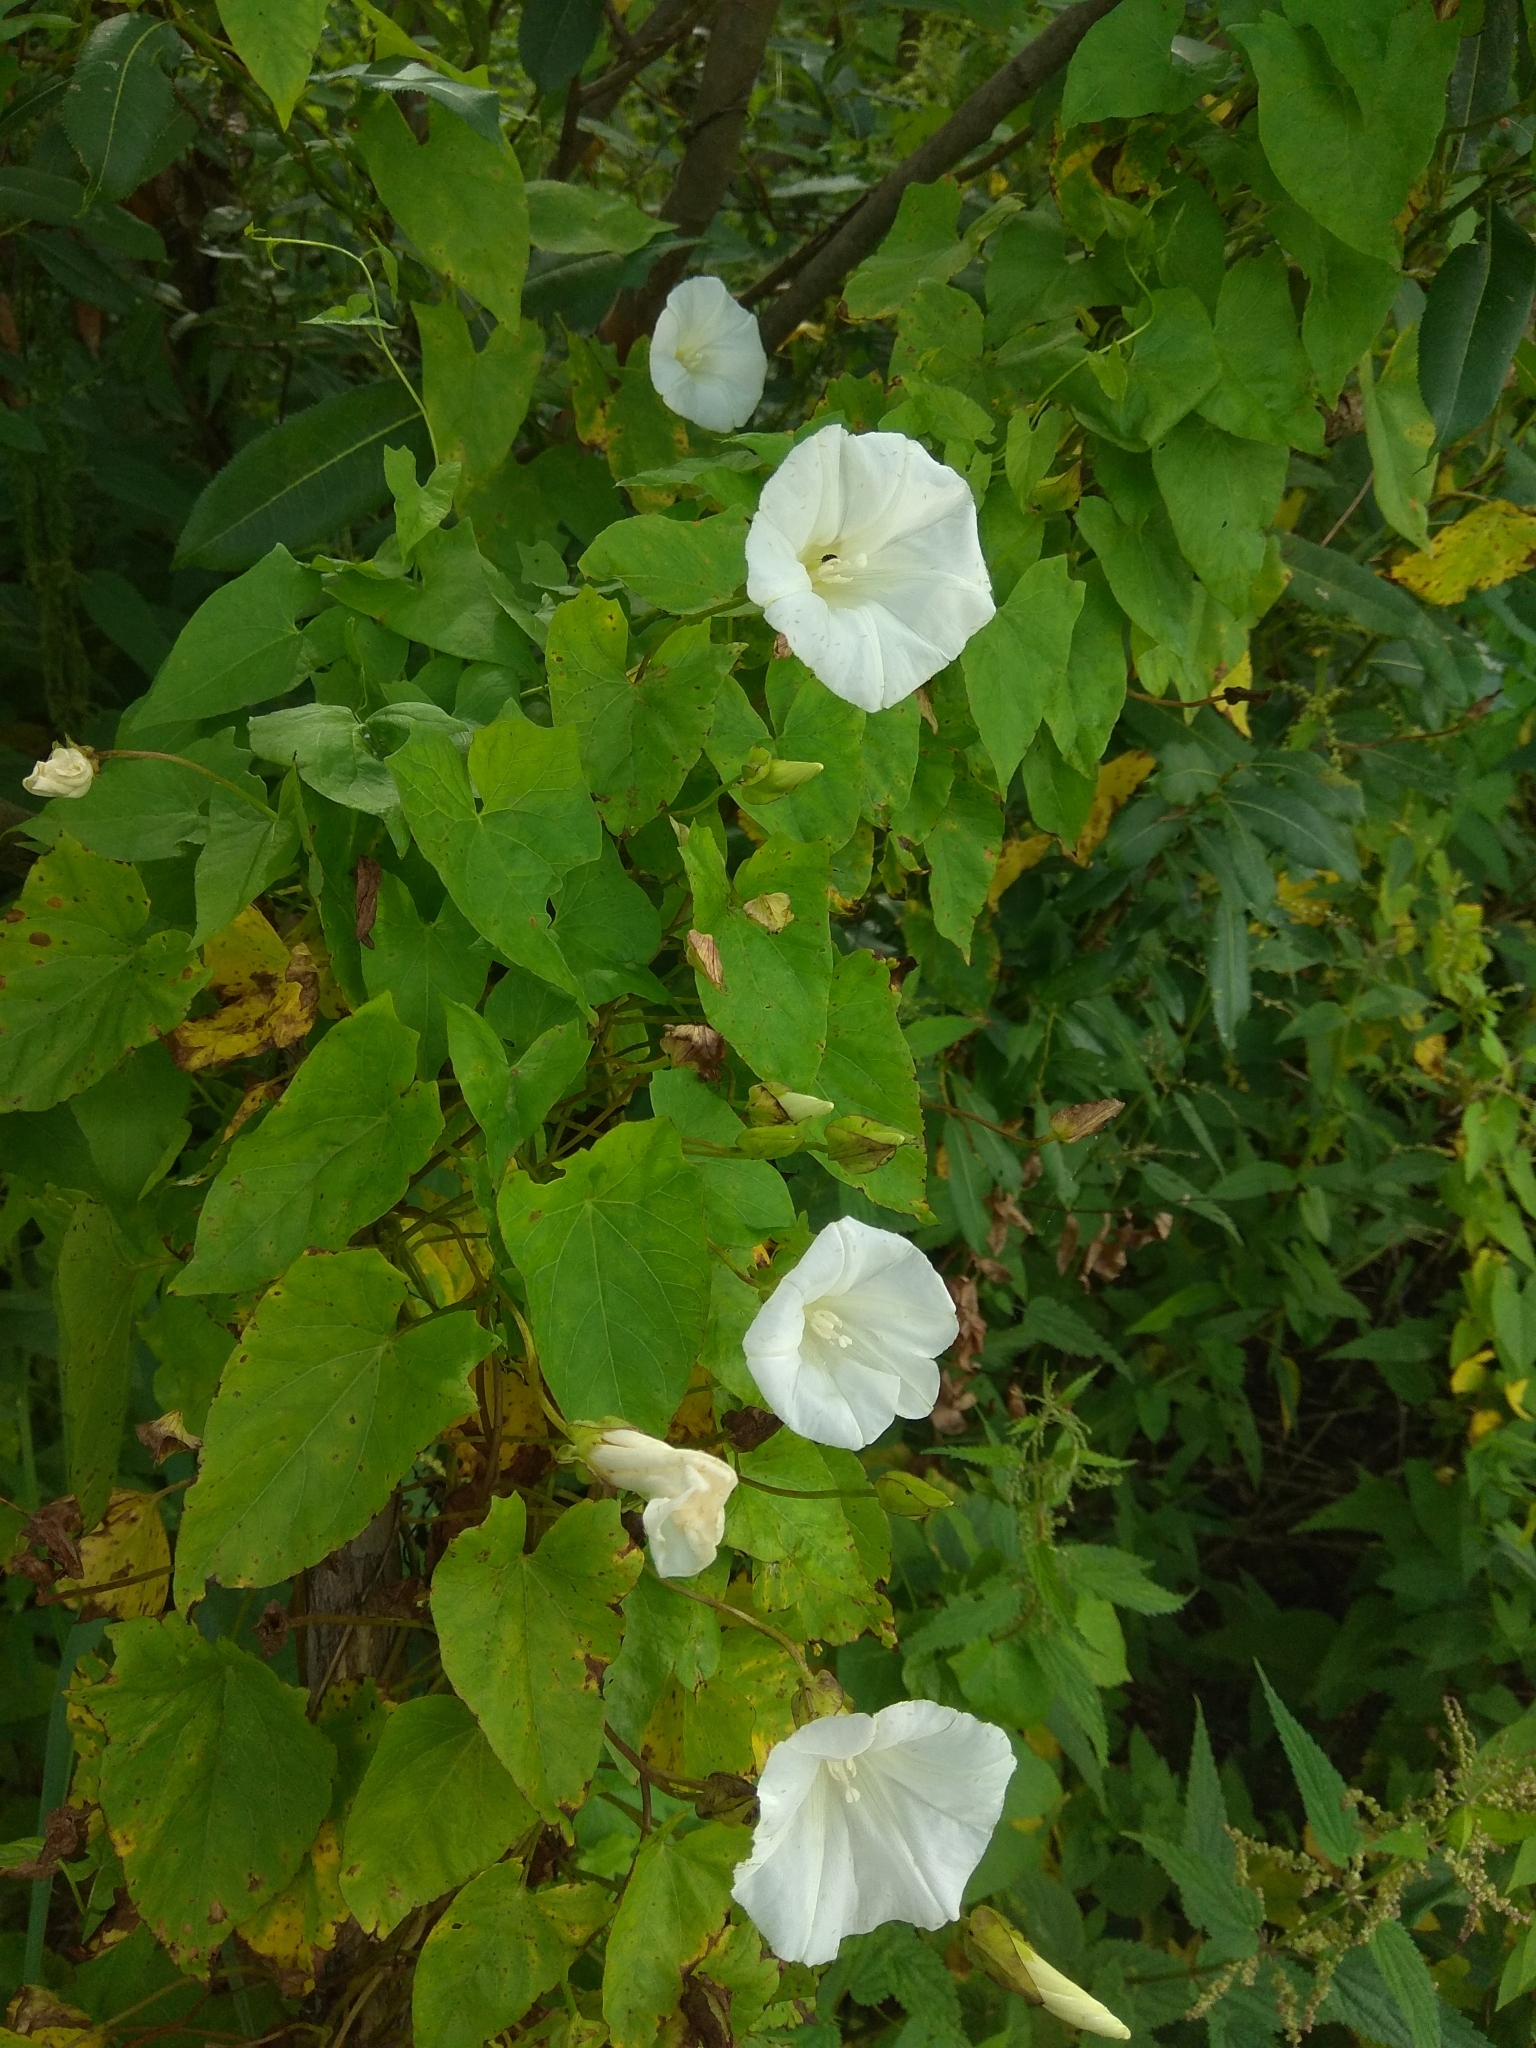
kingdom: Plantae
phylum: Tracheophyta
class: Magnoliopsida
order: Solanales
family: Convolvulaceae
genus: Calystegia
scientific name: Calystegia sepium
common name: Hedge bindweed
